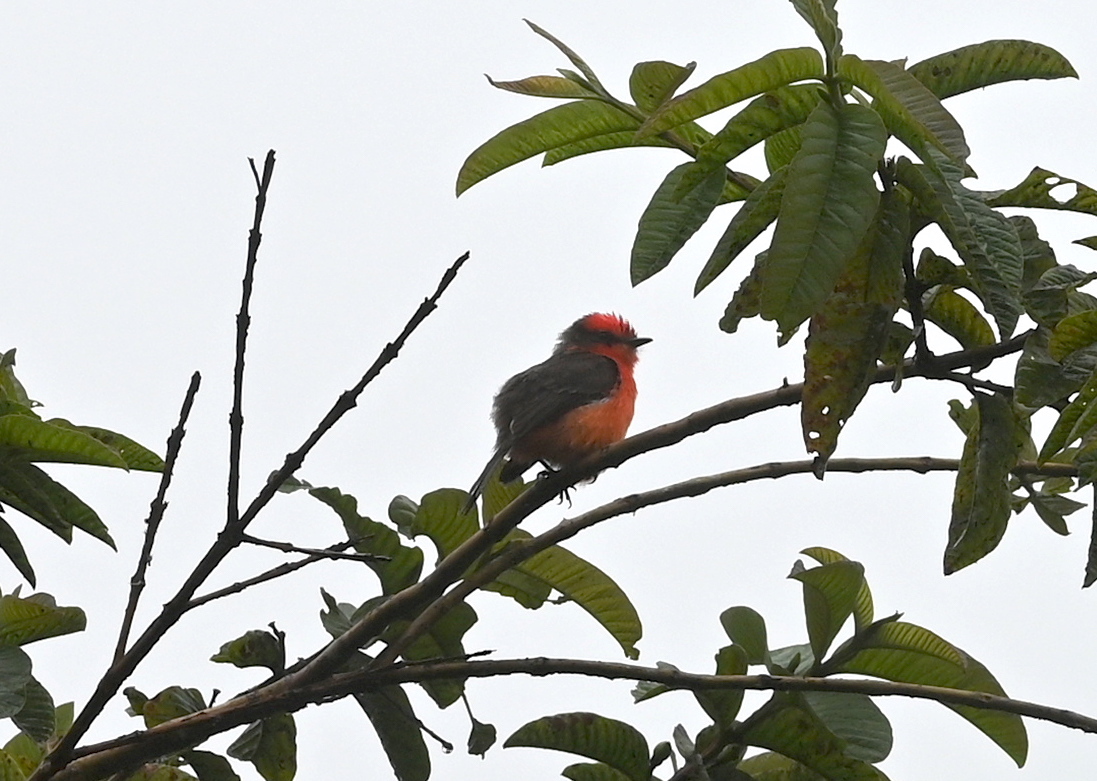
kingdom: Animalia
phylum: Chordata
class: Aves
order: Passeriformes
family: Tyrannidae
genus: Pyrocephalus
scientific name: Pyrocephalus rubinus
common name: Vermilion flycatcher
